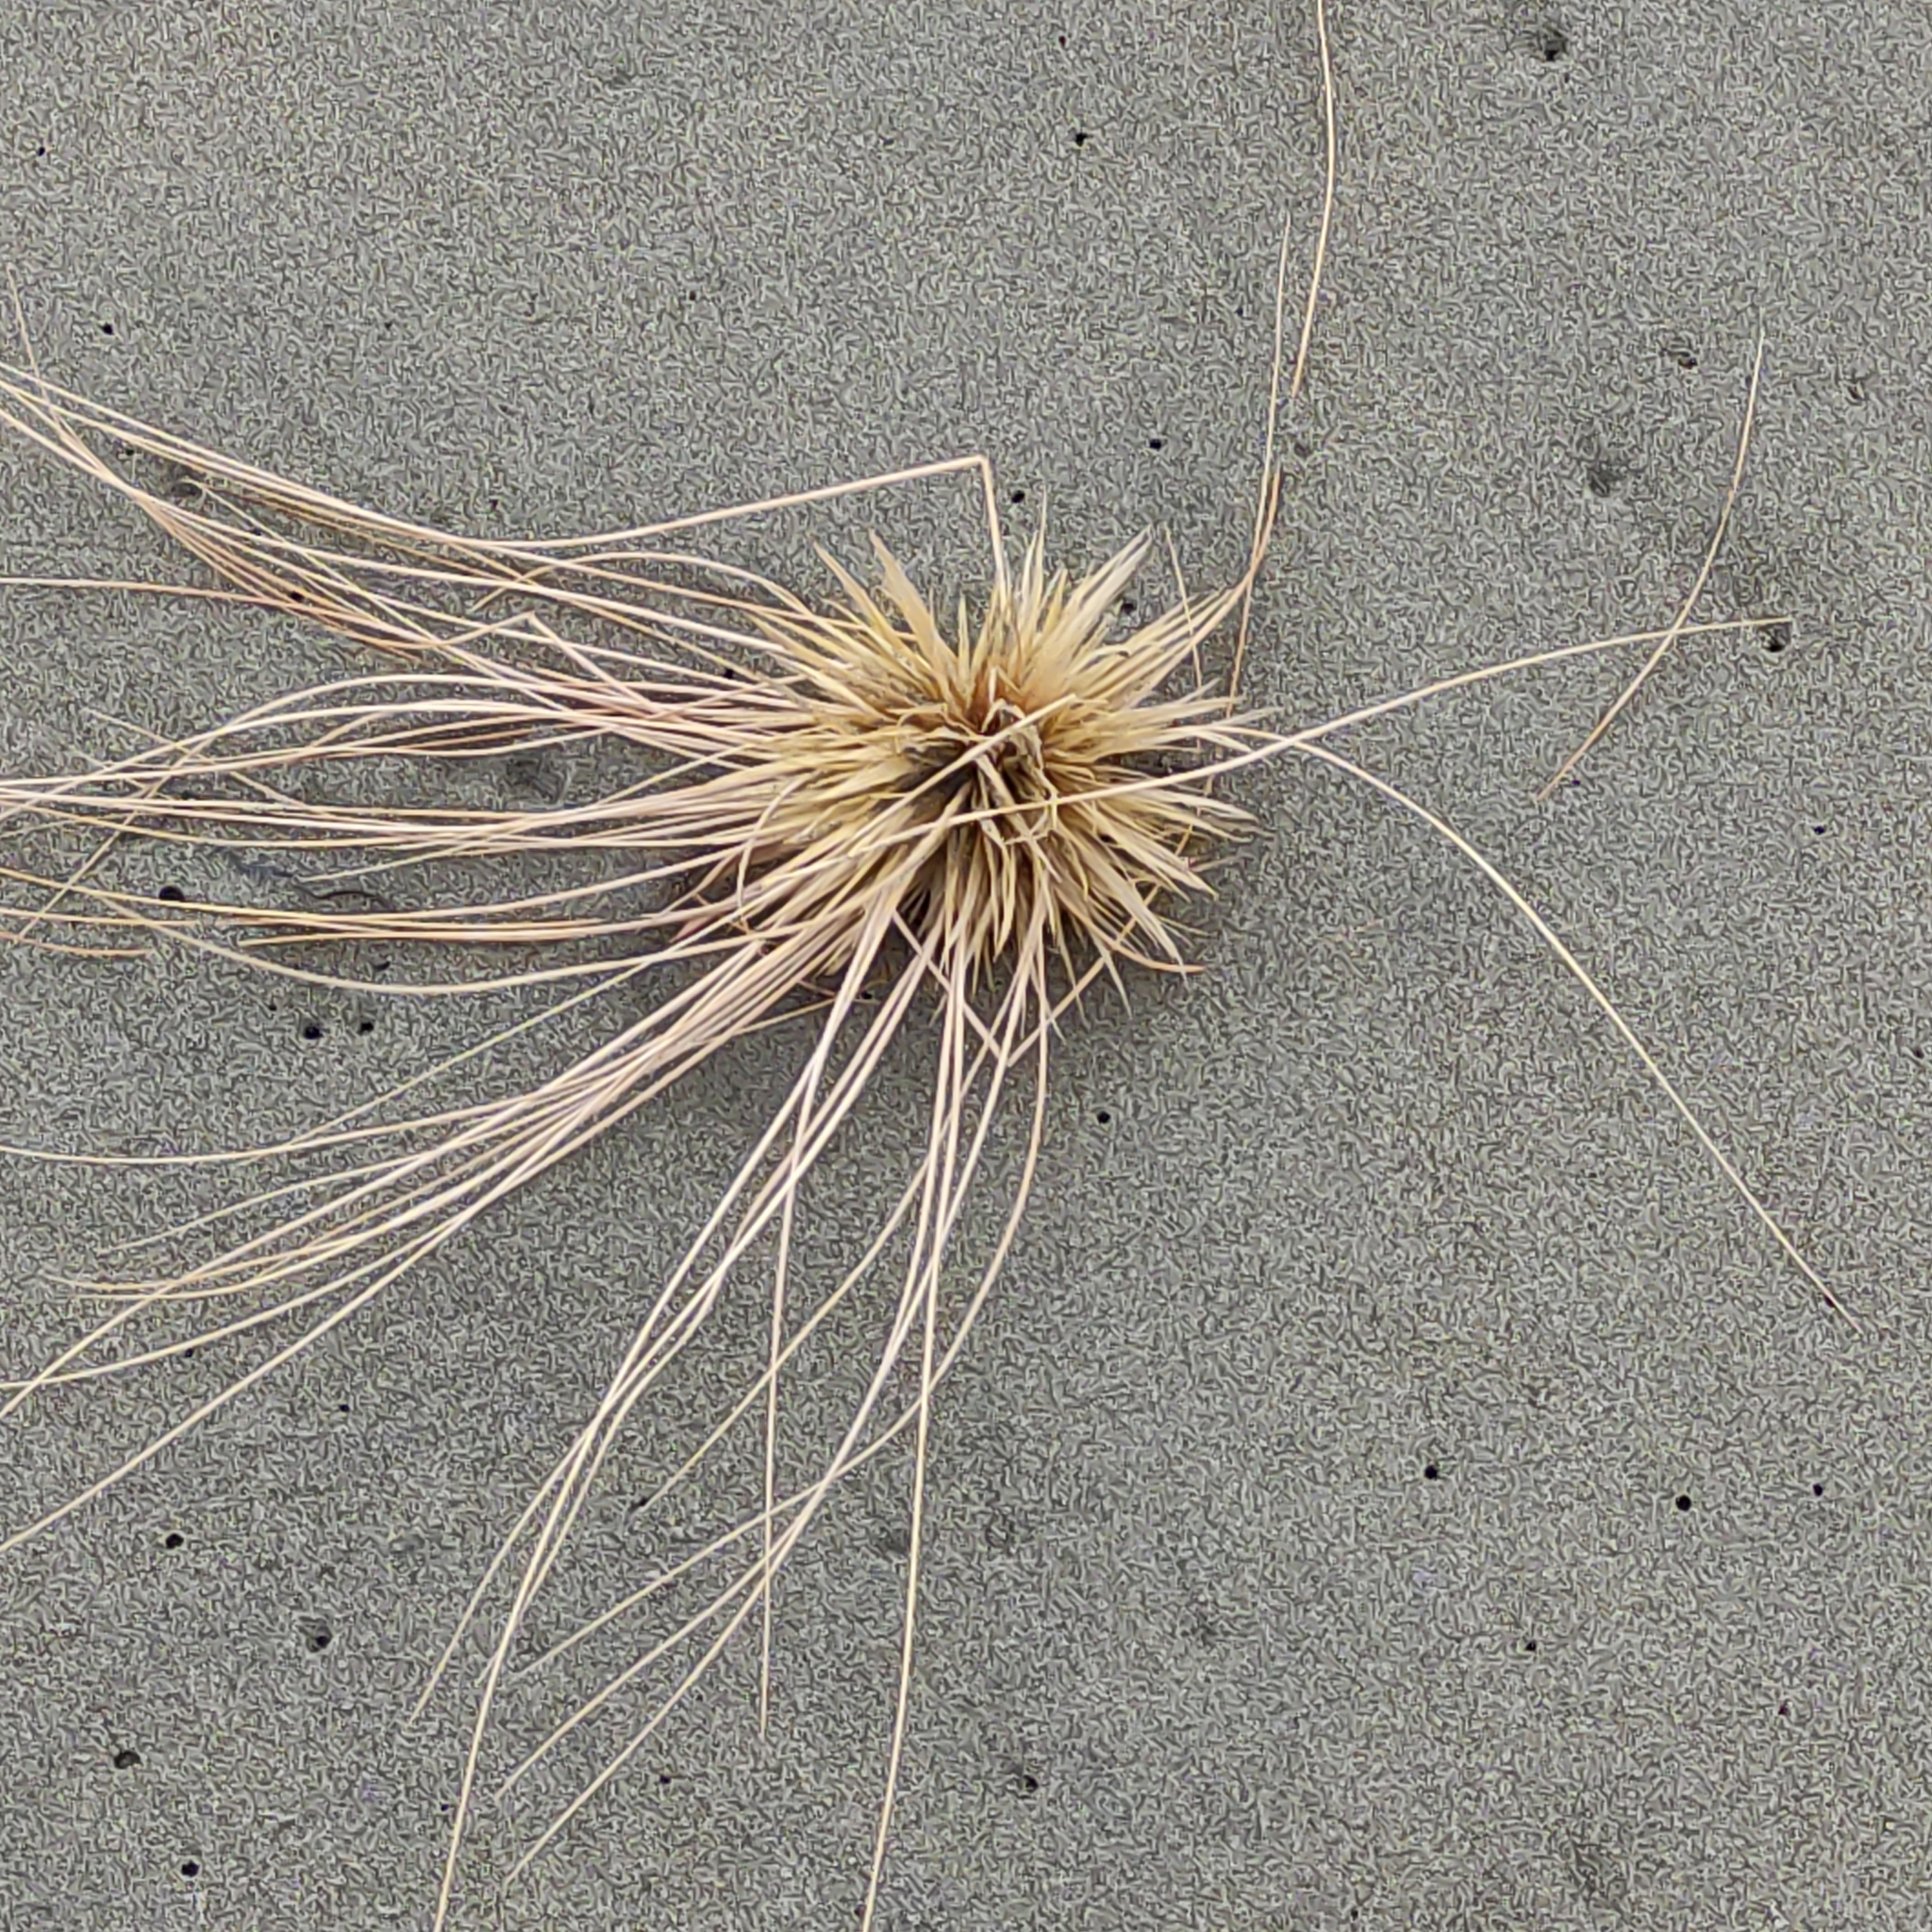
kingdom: Plantae
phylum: Tracheophyta
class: Liliopsida
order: Poales
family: Poaceae
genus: Spinifex
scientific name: Spinifex sericeus
